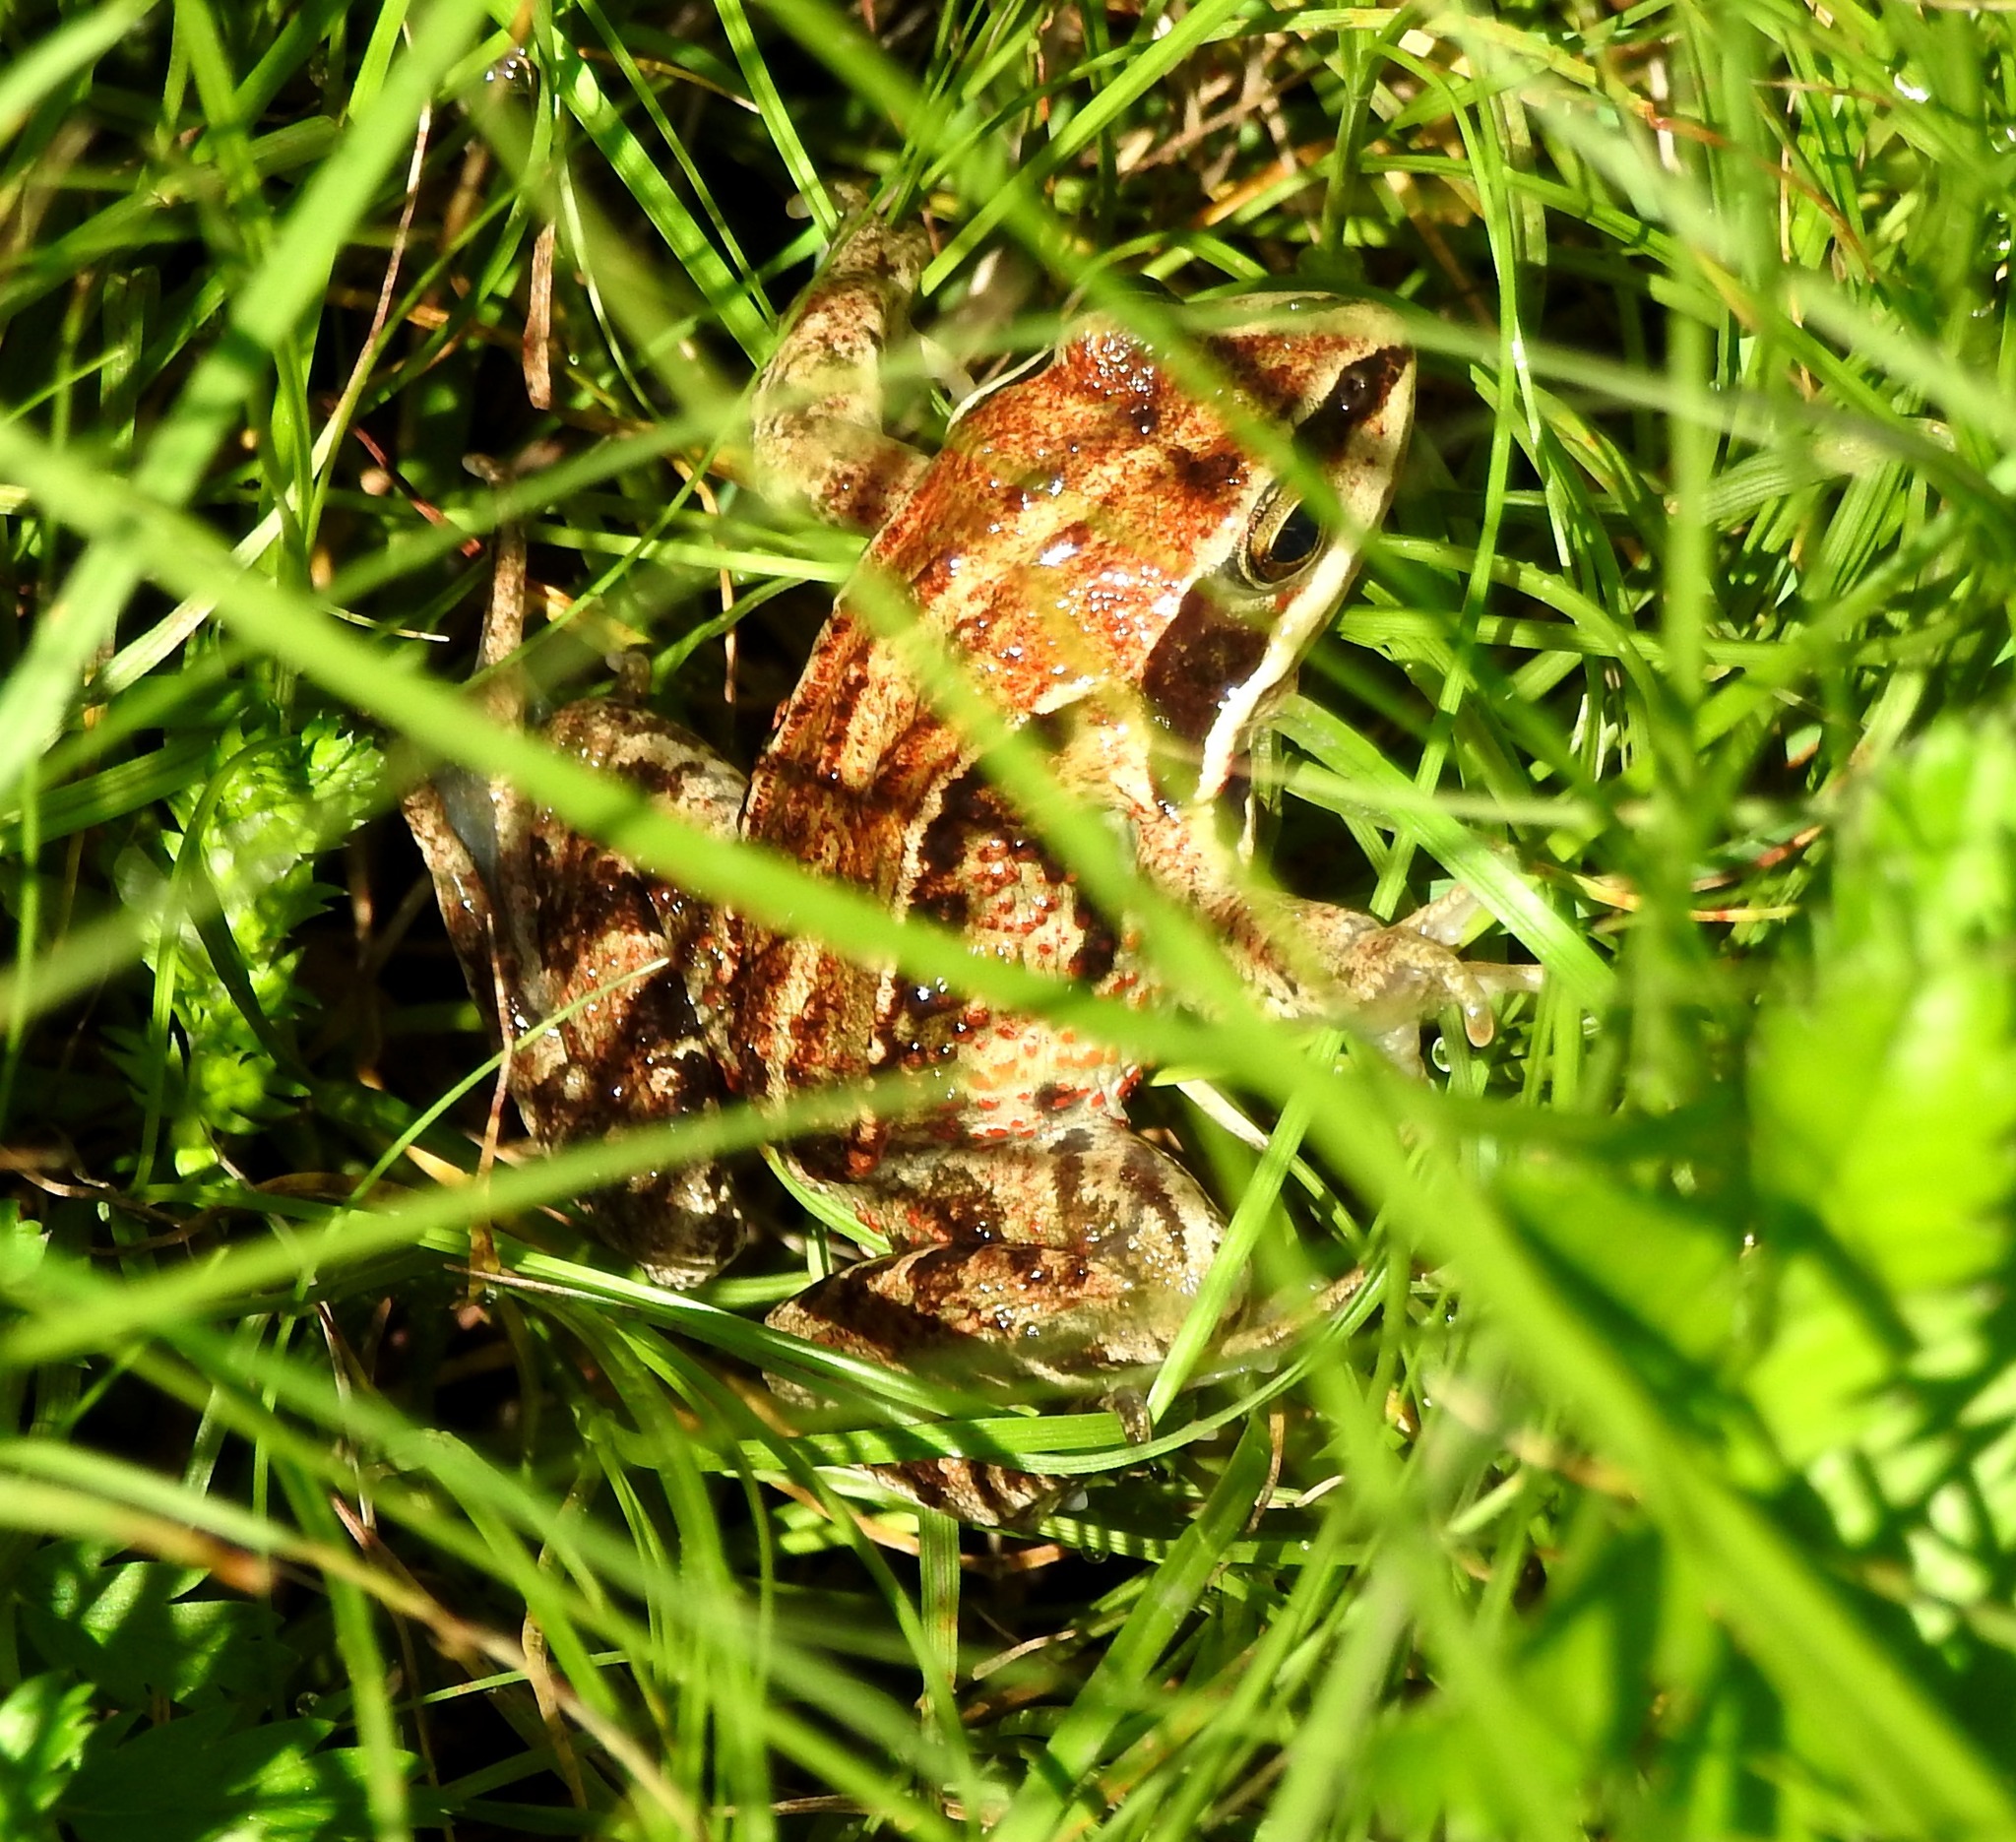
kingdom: Animalia
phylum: Chordata
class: Amphibia
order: Anura
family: Ranidae
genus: Rana
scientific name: Rana amurensis
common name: Amur brown frog
